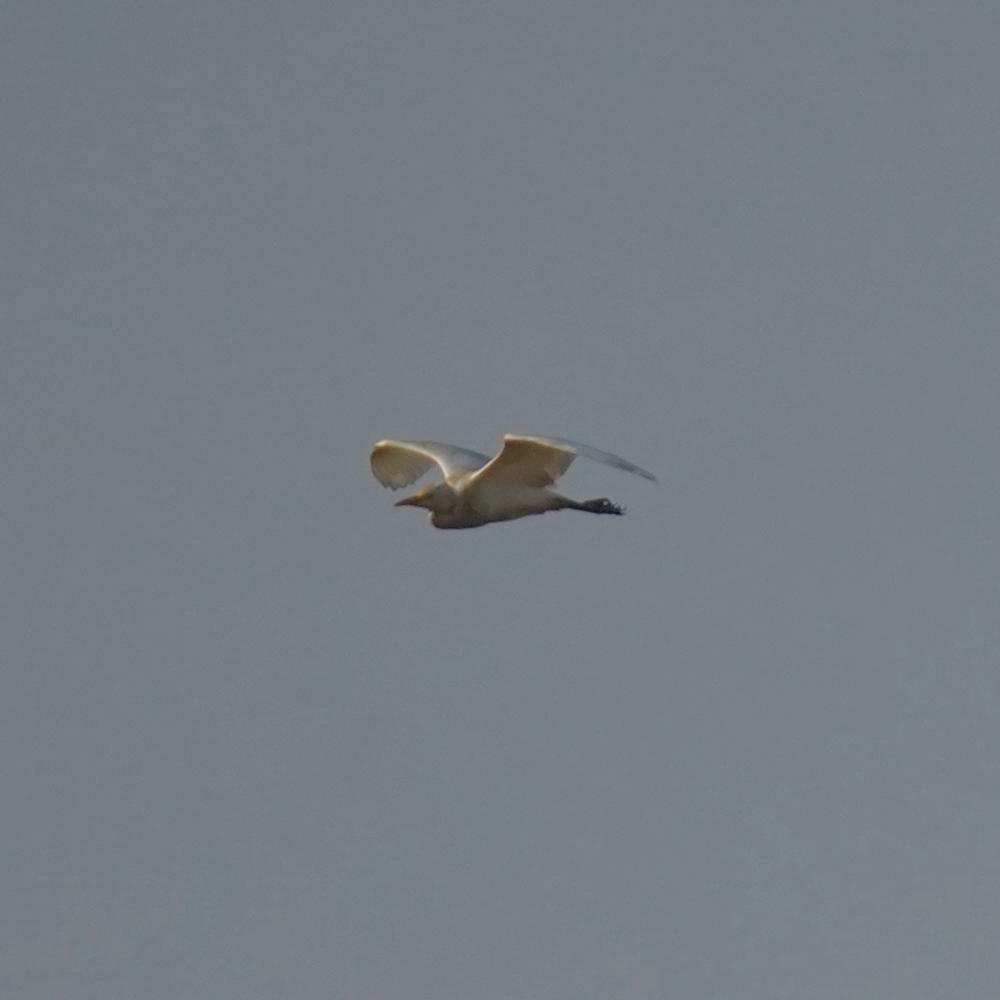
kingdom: Animalia
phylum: Chordata
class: Aves
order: Pelecaniformes
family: Ardeidae
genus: Bubulcus
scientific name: Bubulcus ibis
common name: Cattle egret
